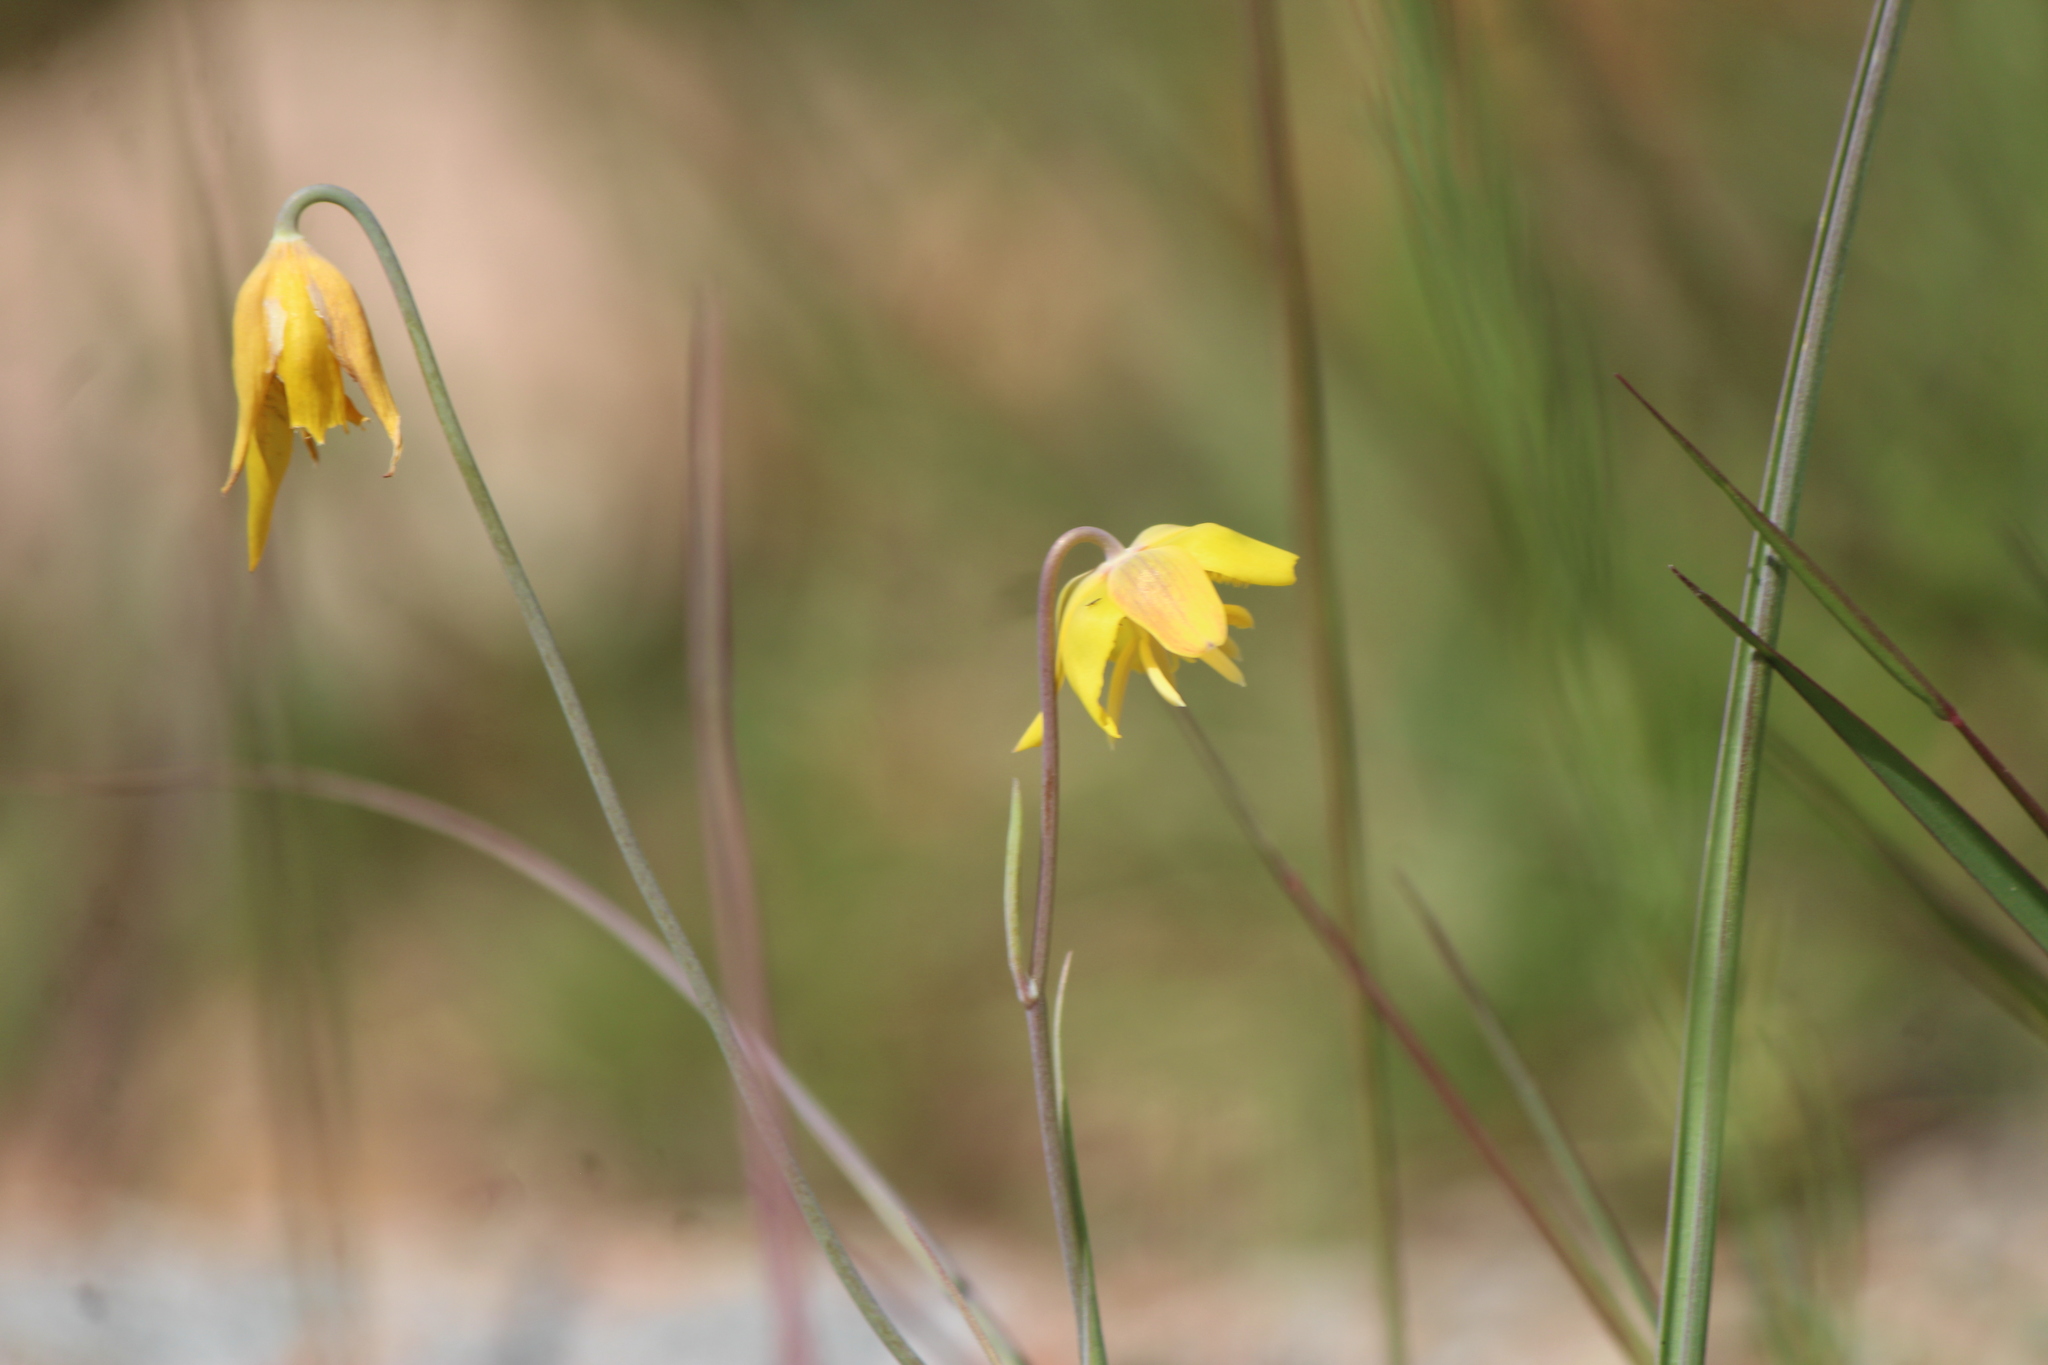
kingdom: Plantae
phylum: Tracheophyta
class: Liliopsida
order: Liliales
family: Liliaceae
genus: Calochortus
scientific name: Calochortus barbatus
